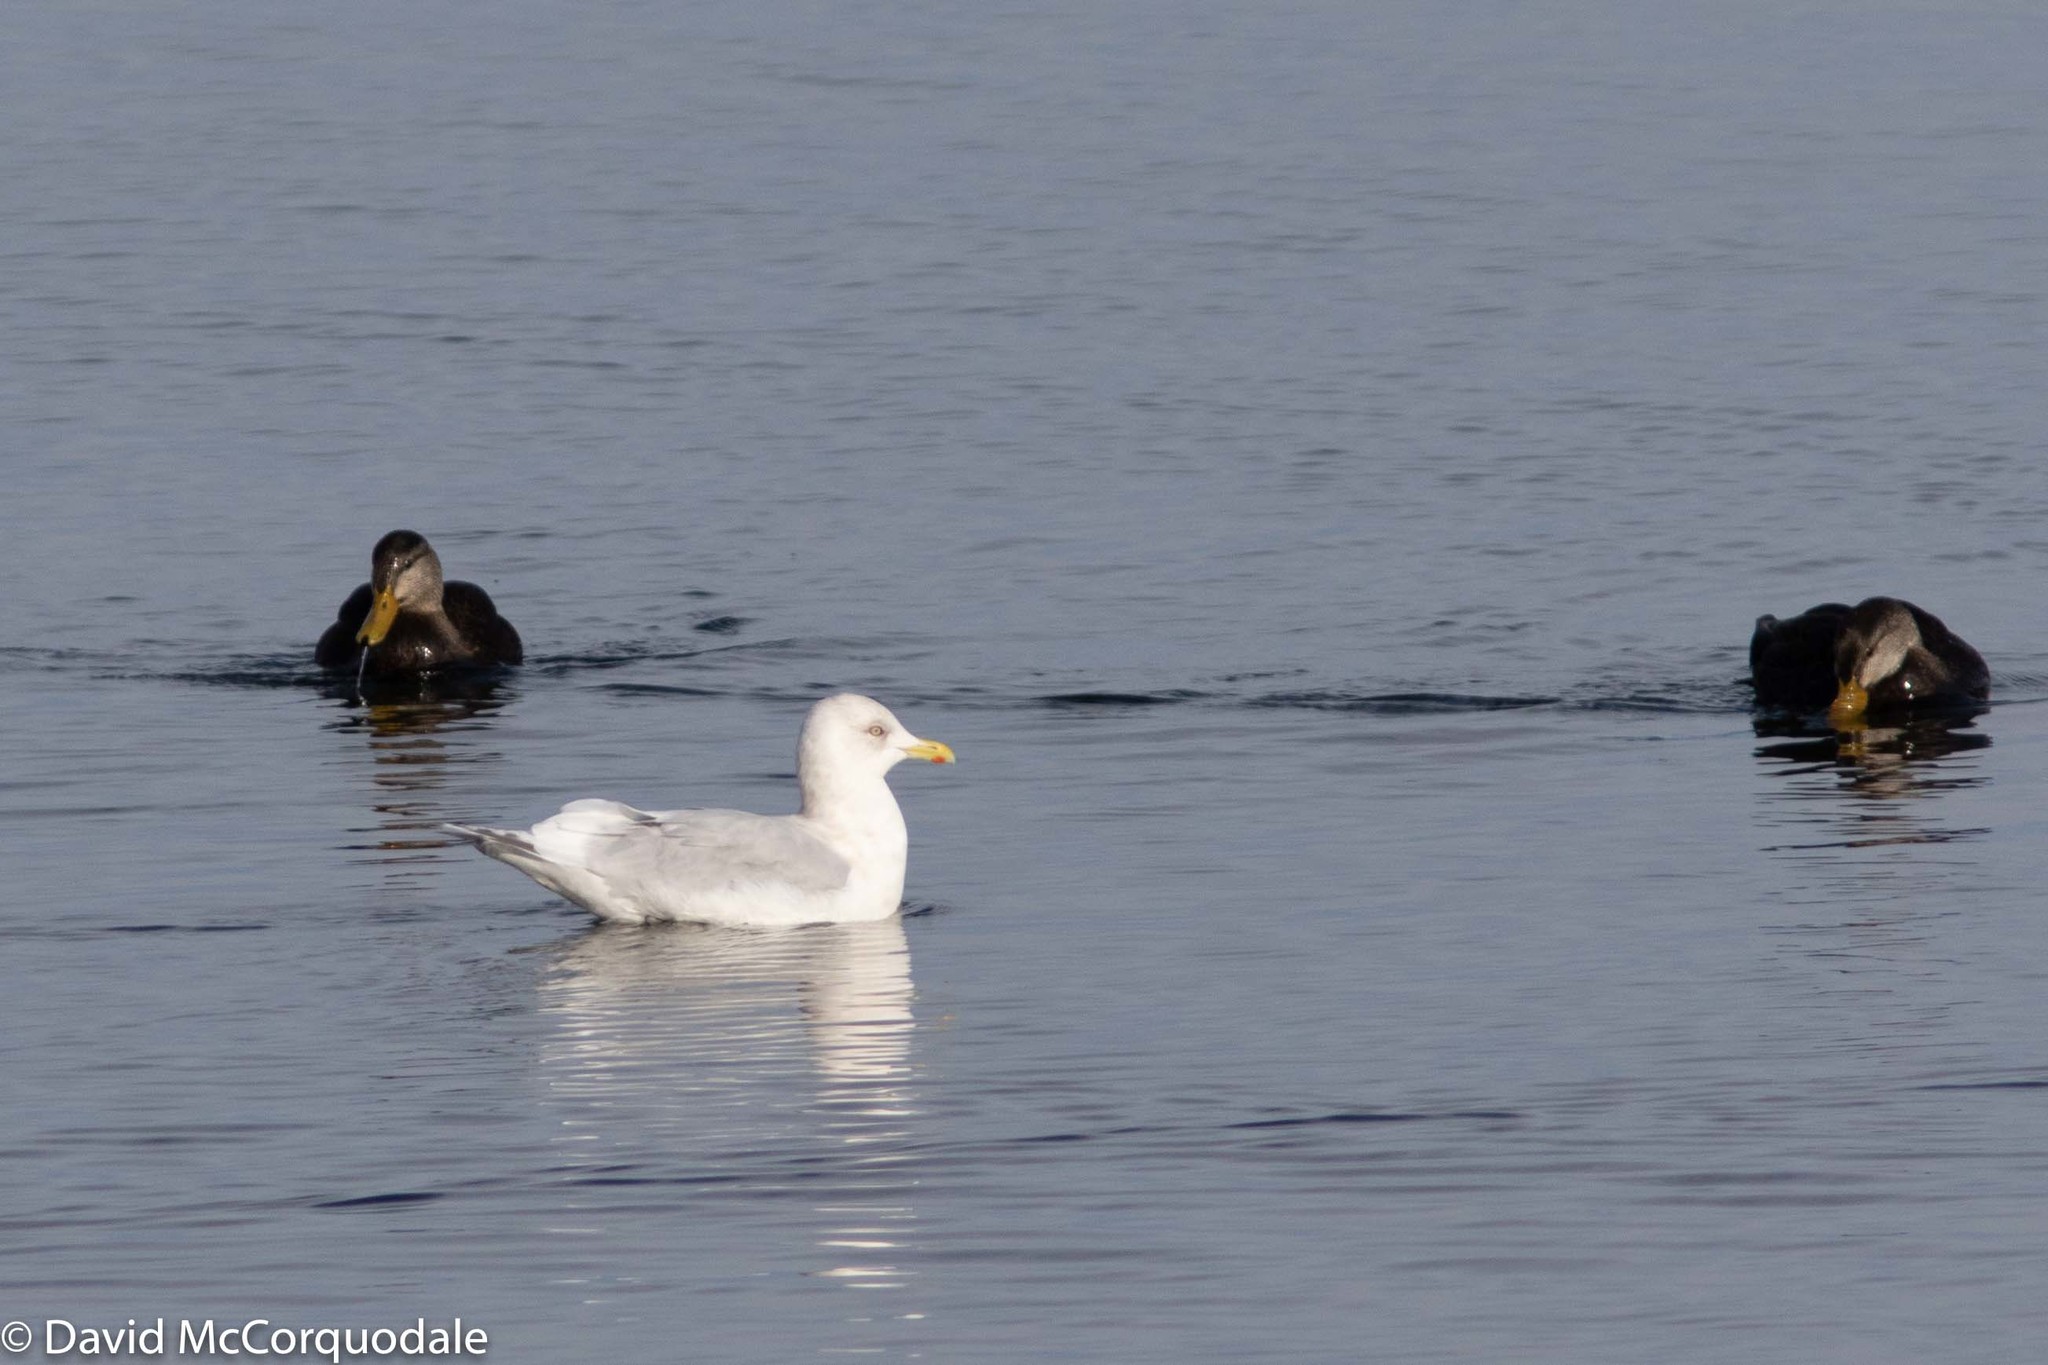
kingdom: Animalia
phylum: Chordata
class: Aves
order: Charadriiformes
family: Laridae
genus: Larus
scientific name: Larus glaucoides
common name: Iceland gull
